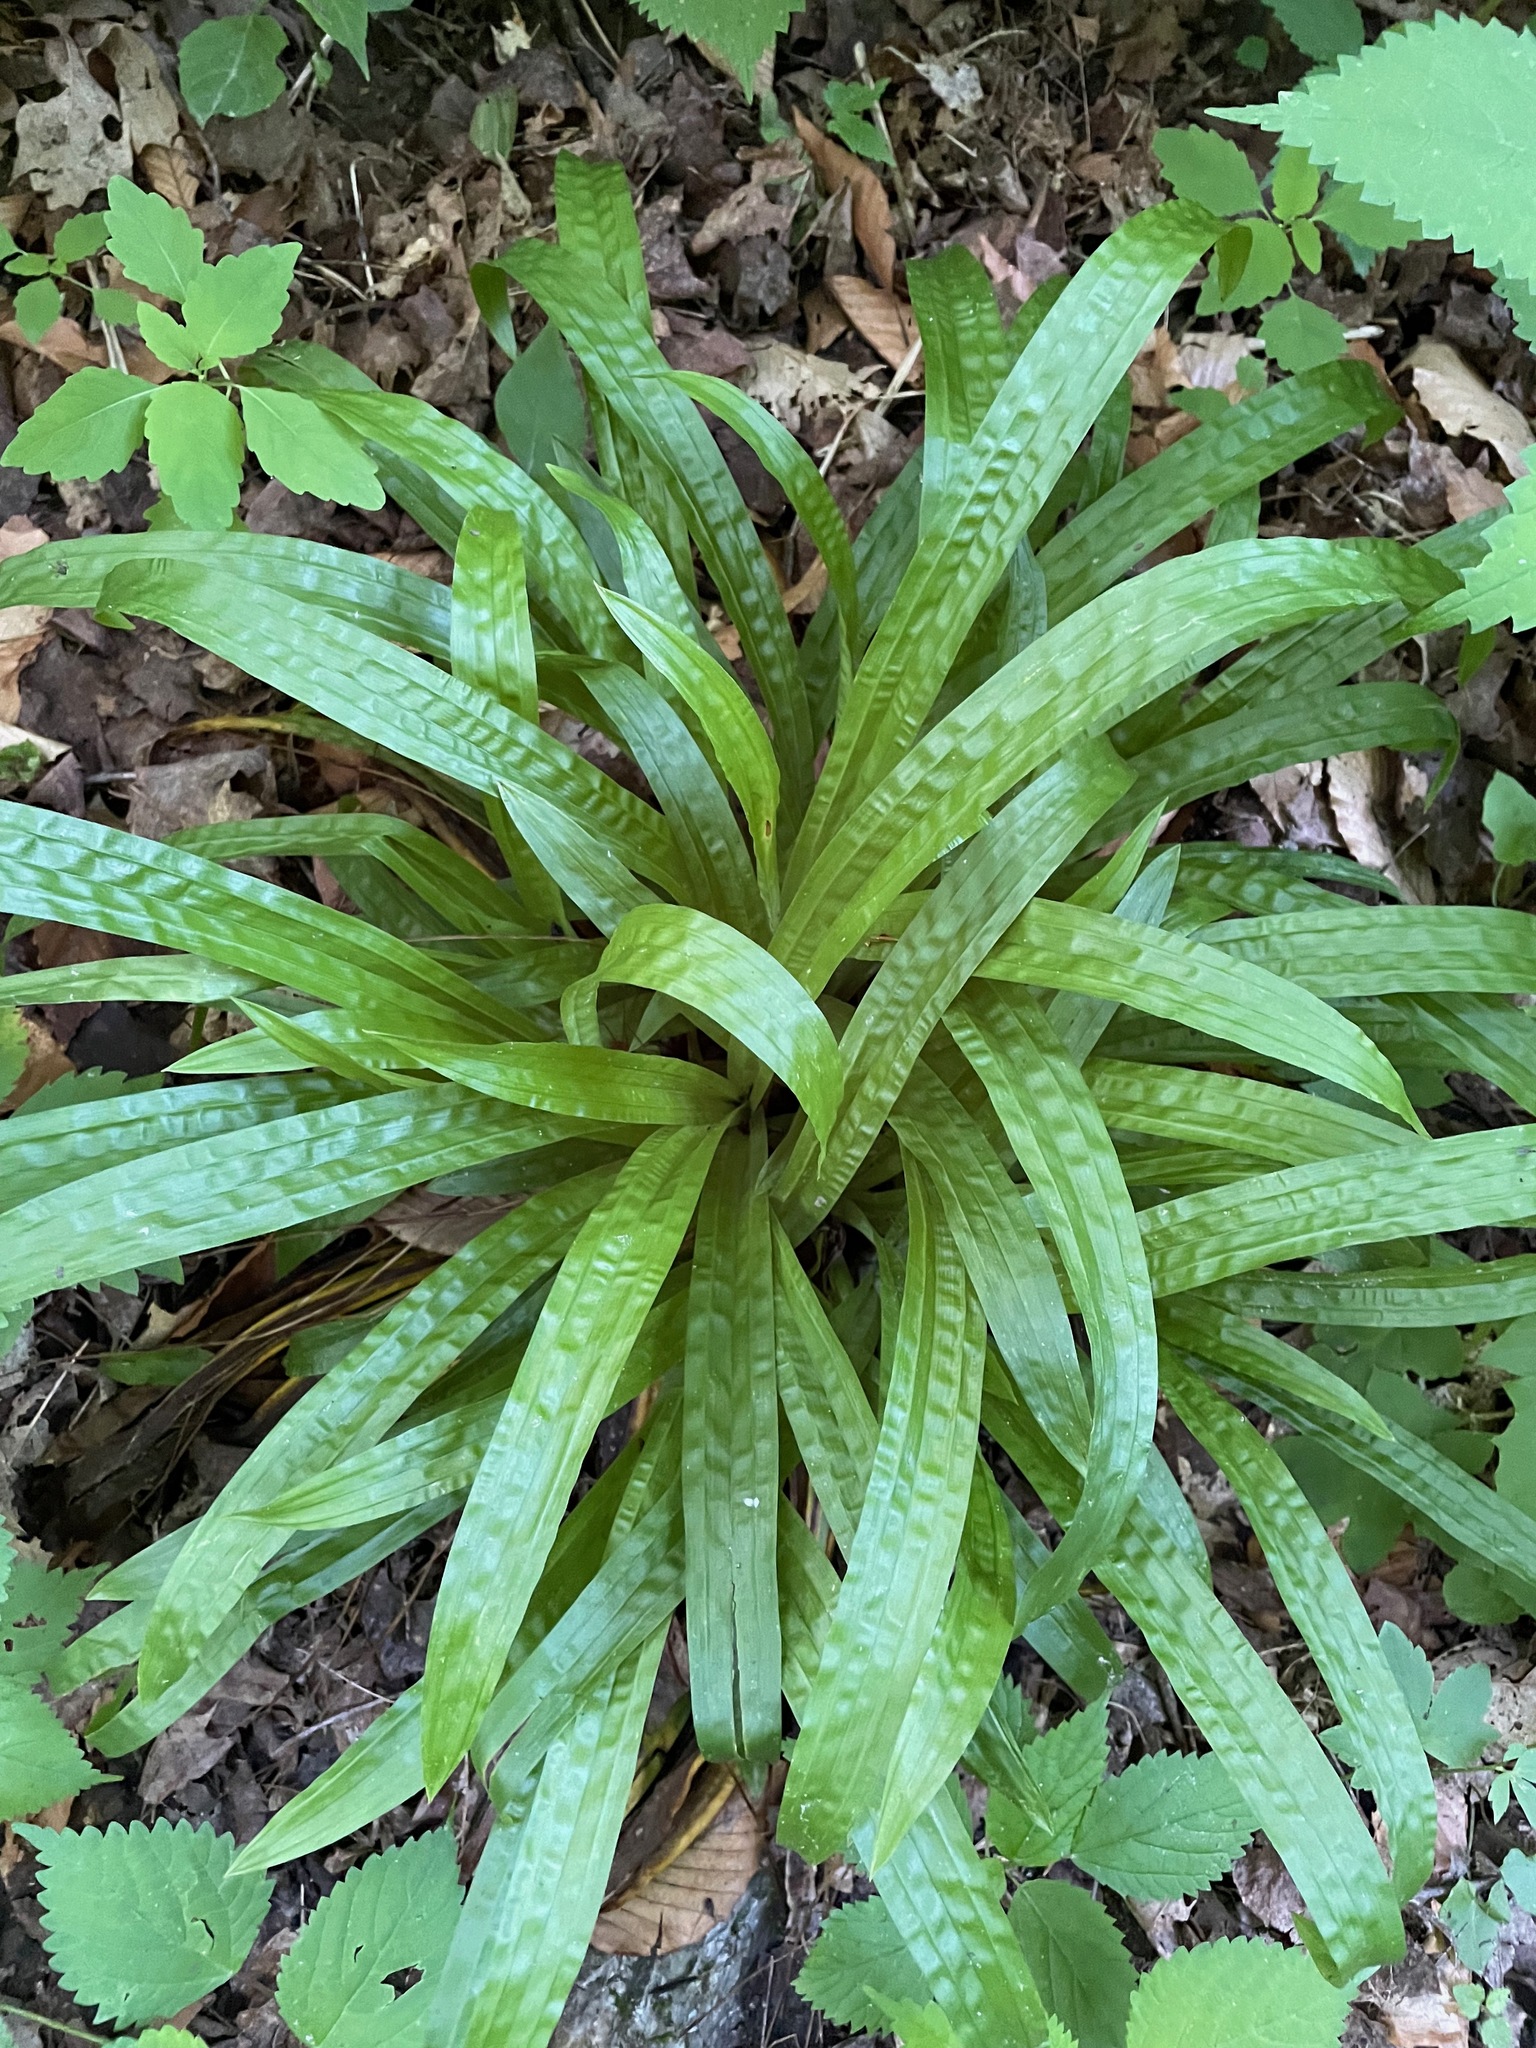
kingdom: Plantae
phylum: Tracheophyta
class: Liliopsida
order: Poales
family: Cyperaceae
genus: Carex
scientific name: Carex plantaginea
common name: Plantain-leaved sedge
